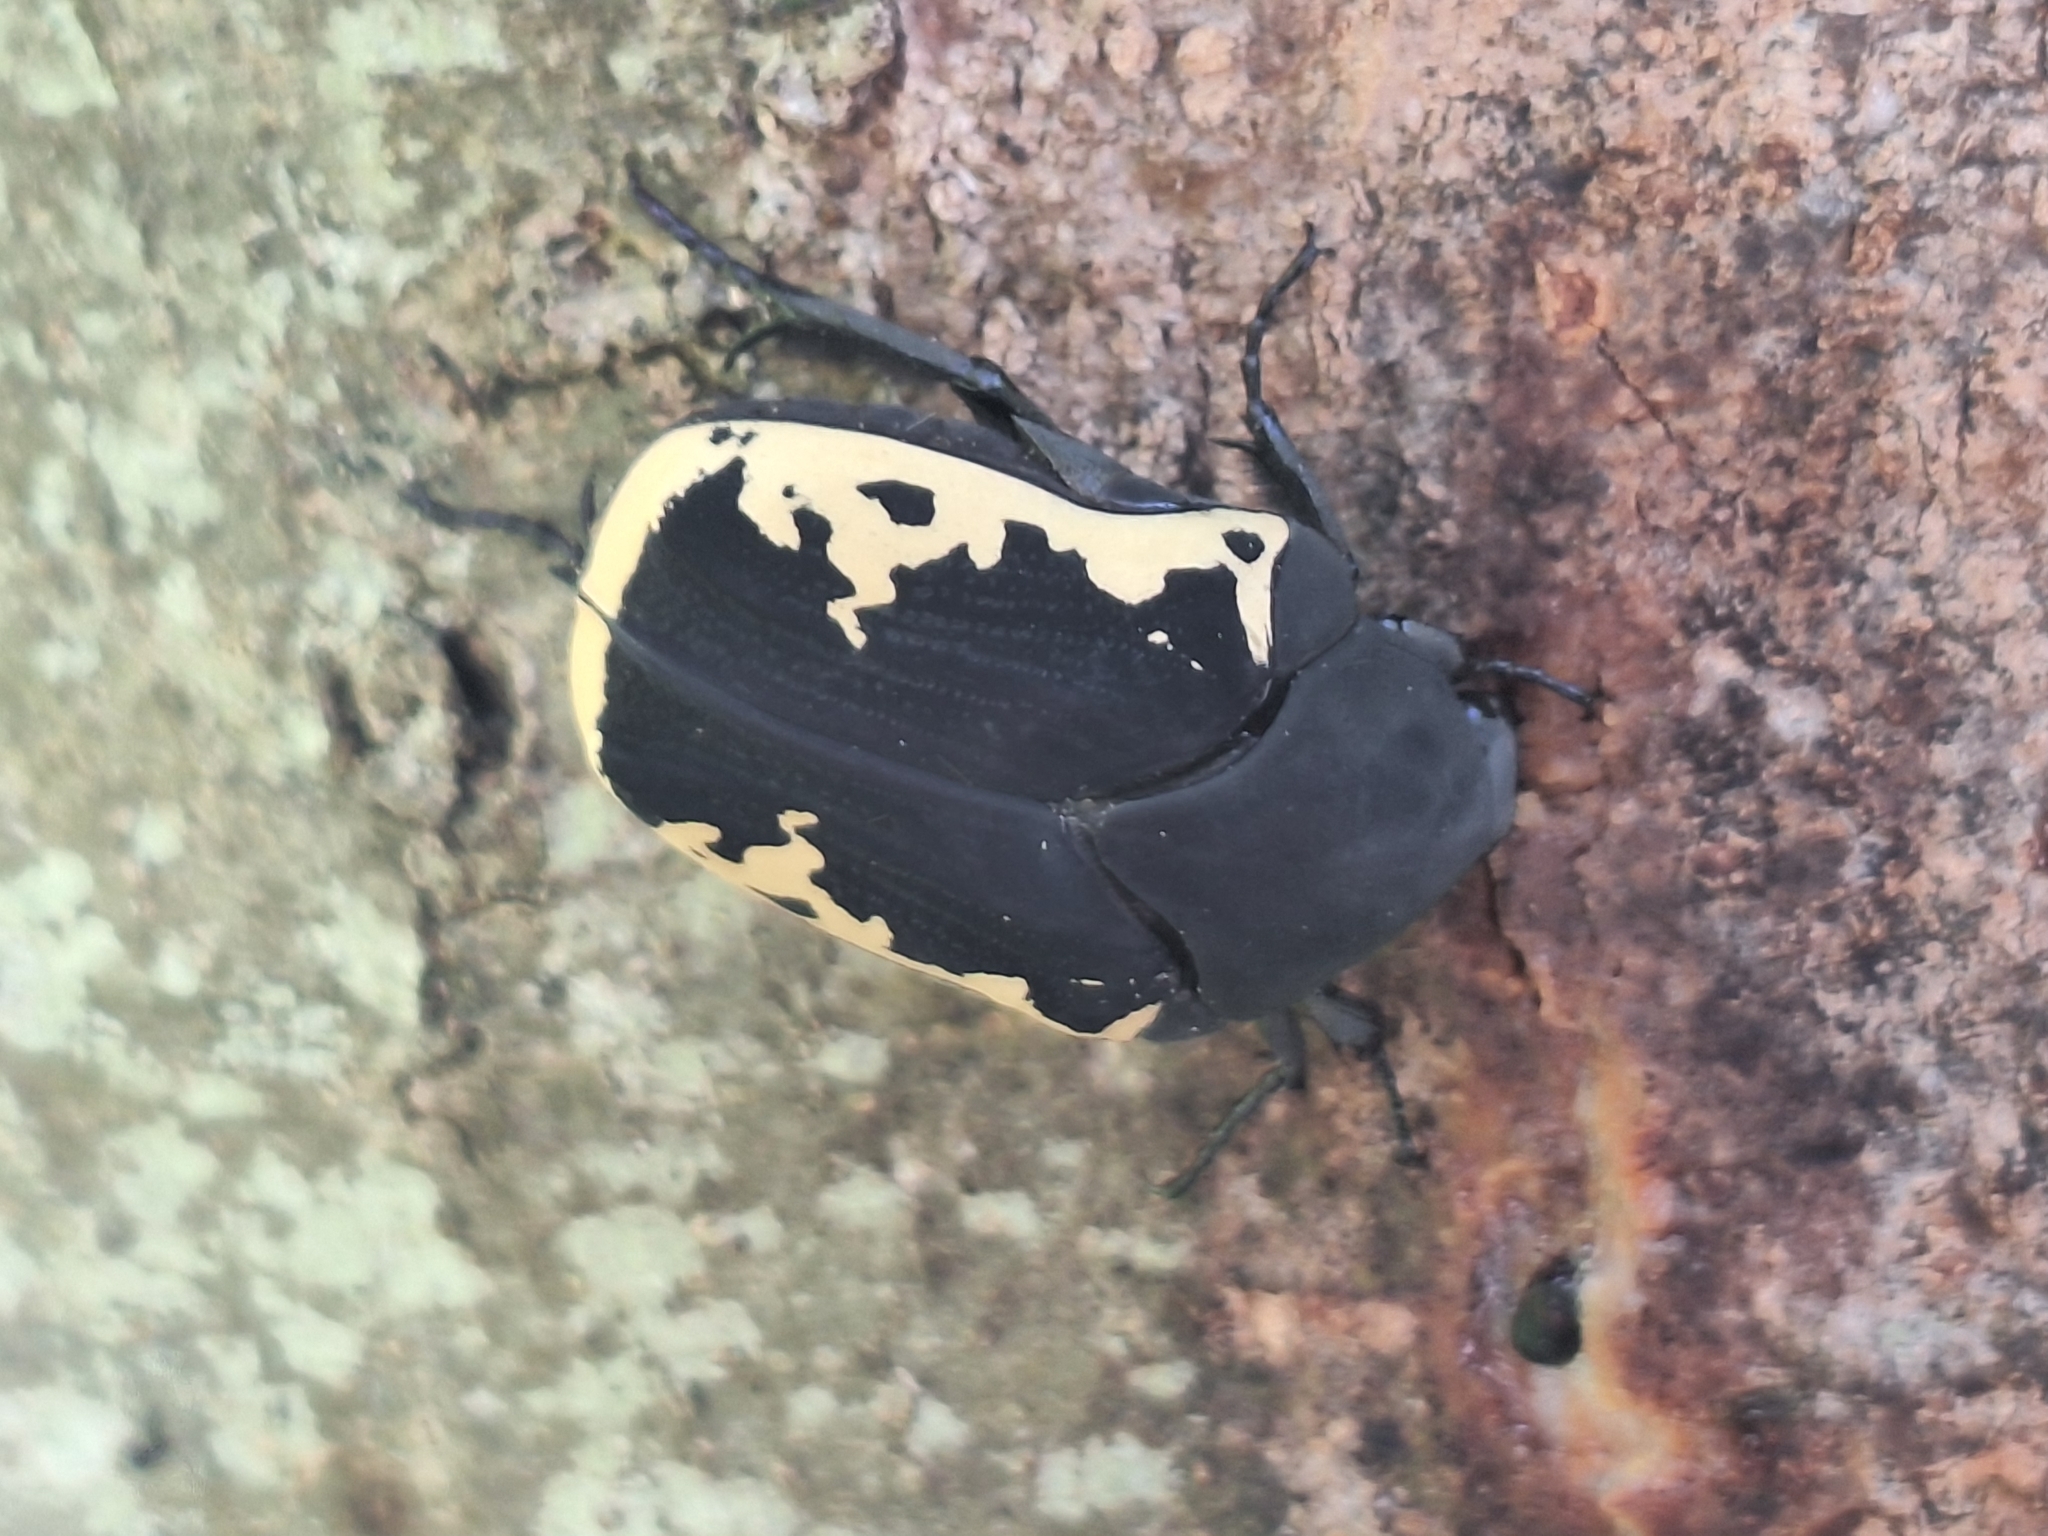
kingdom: Animalia
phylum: Arthropoda
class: Insecta
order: Coleoptera
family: Scarabaeidae
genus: Gymnetis
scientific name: Gymnetis pudibunda
